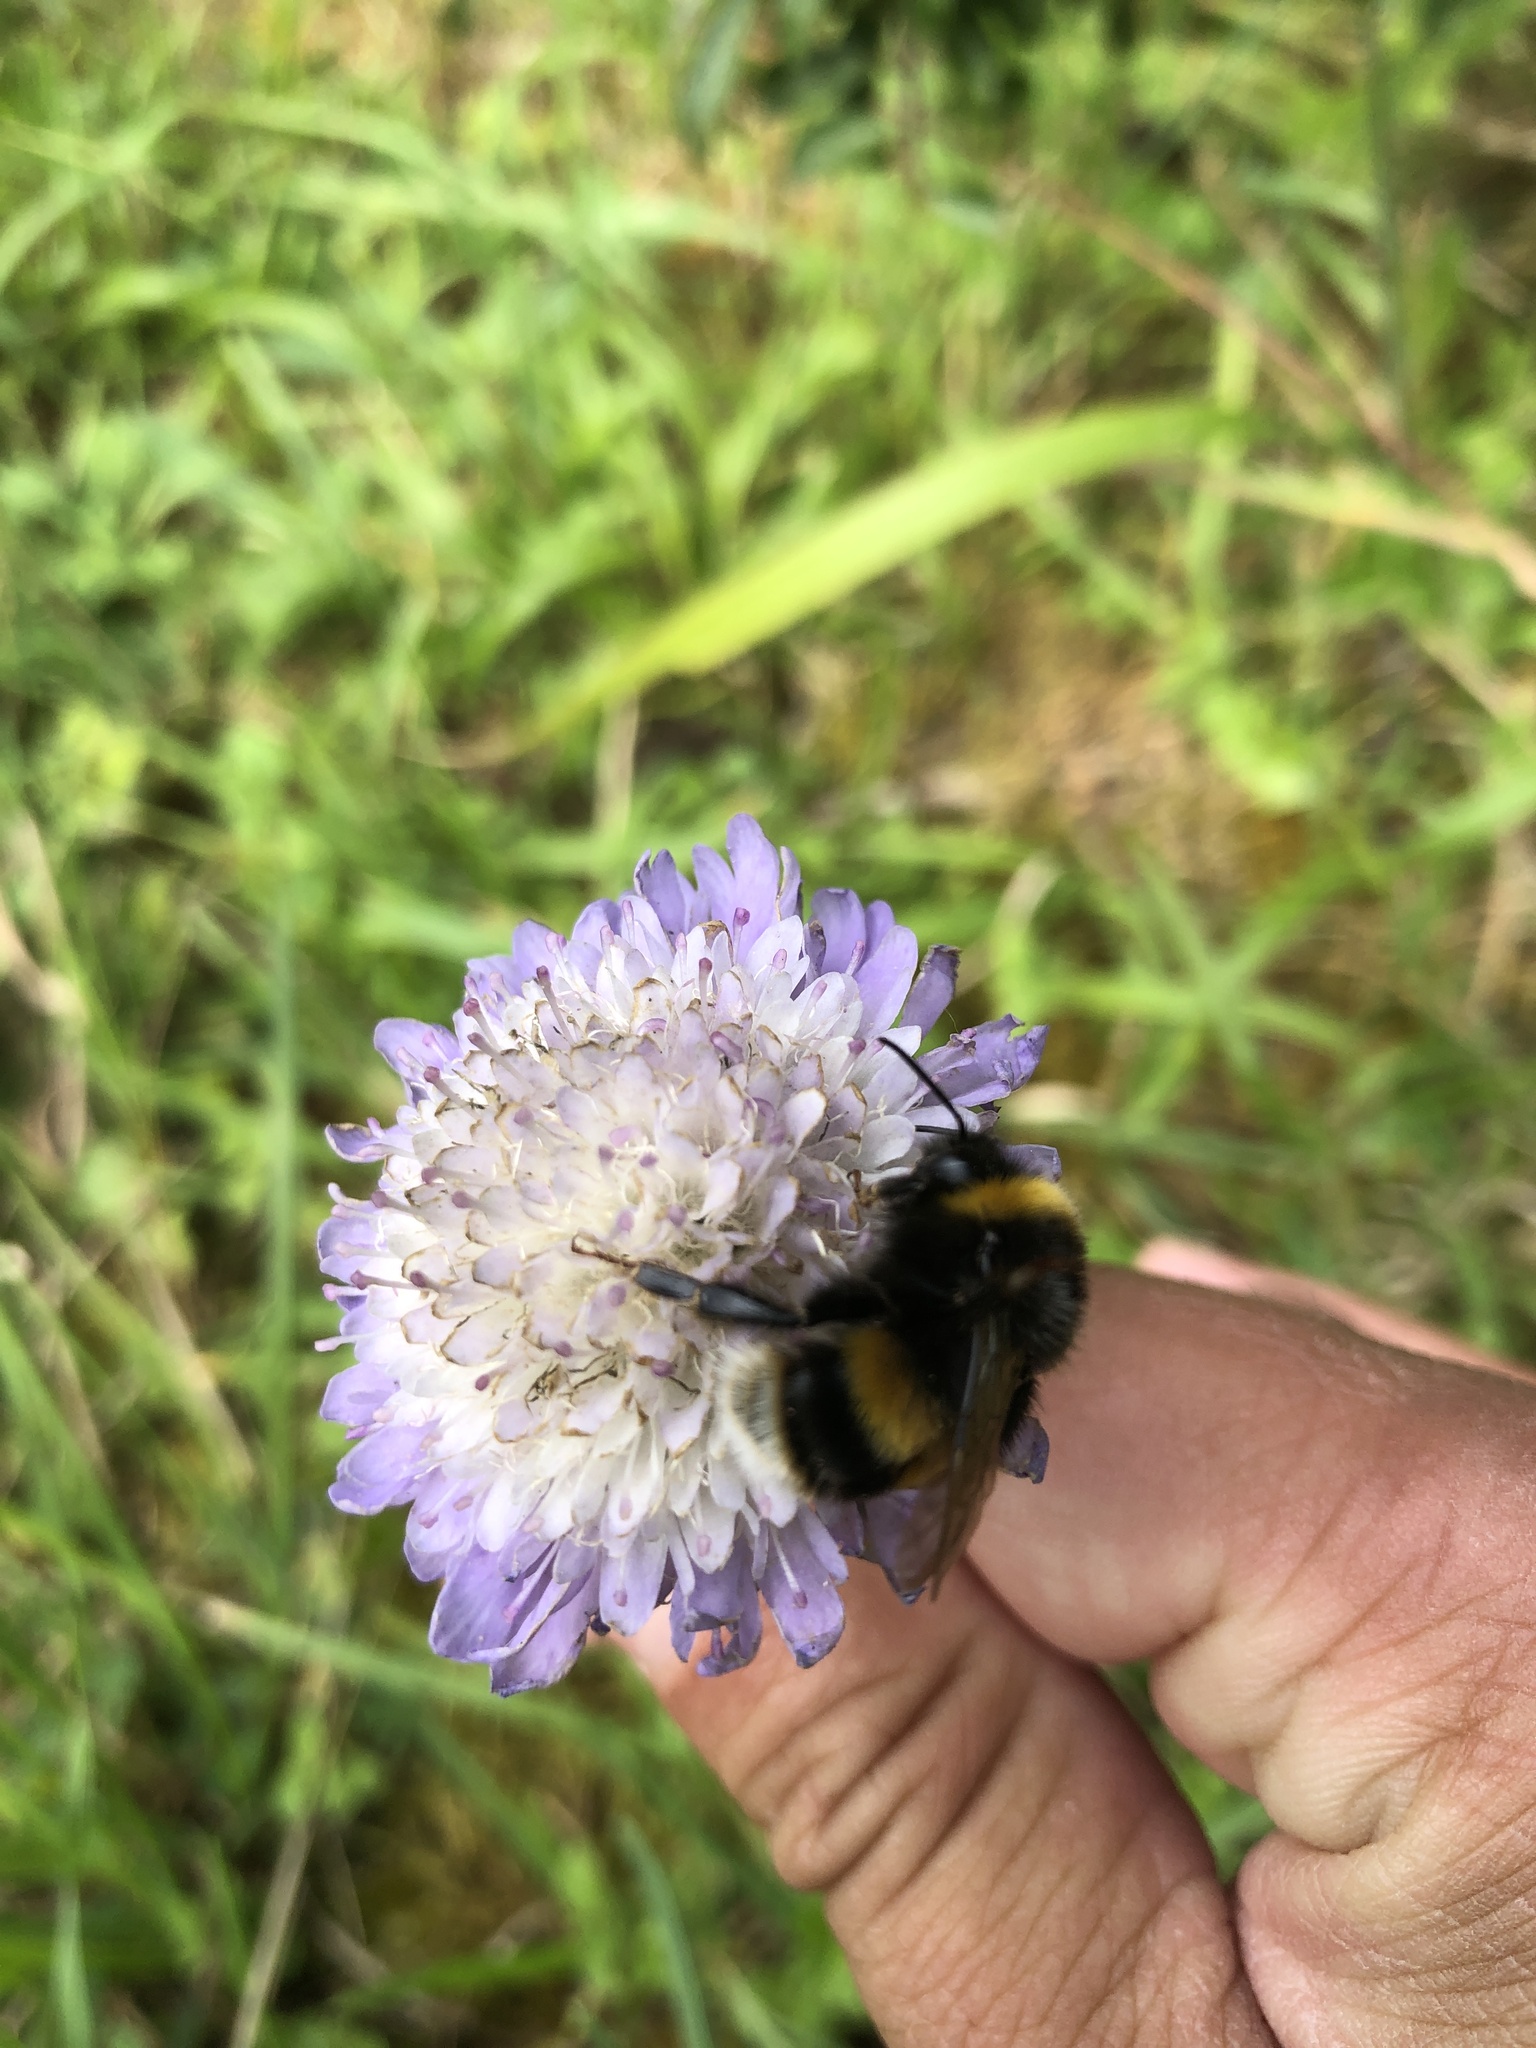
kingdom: Animalia
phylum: Arthropoda
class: Insecta
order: Hymenoptera
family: Apidae
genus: Bombus
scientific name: Bombus terrestris
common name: Buff-tailed bumblebee
